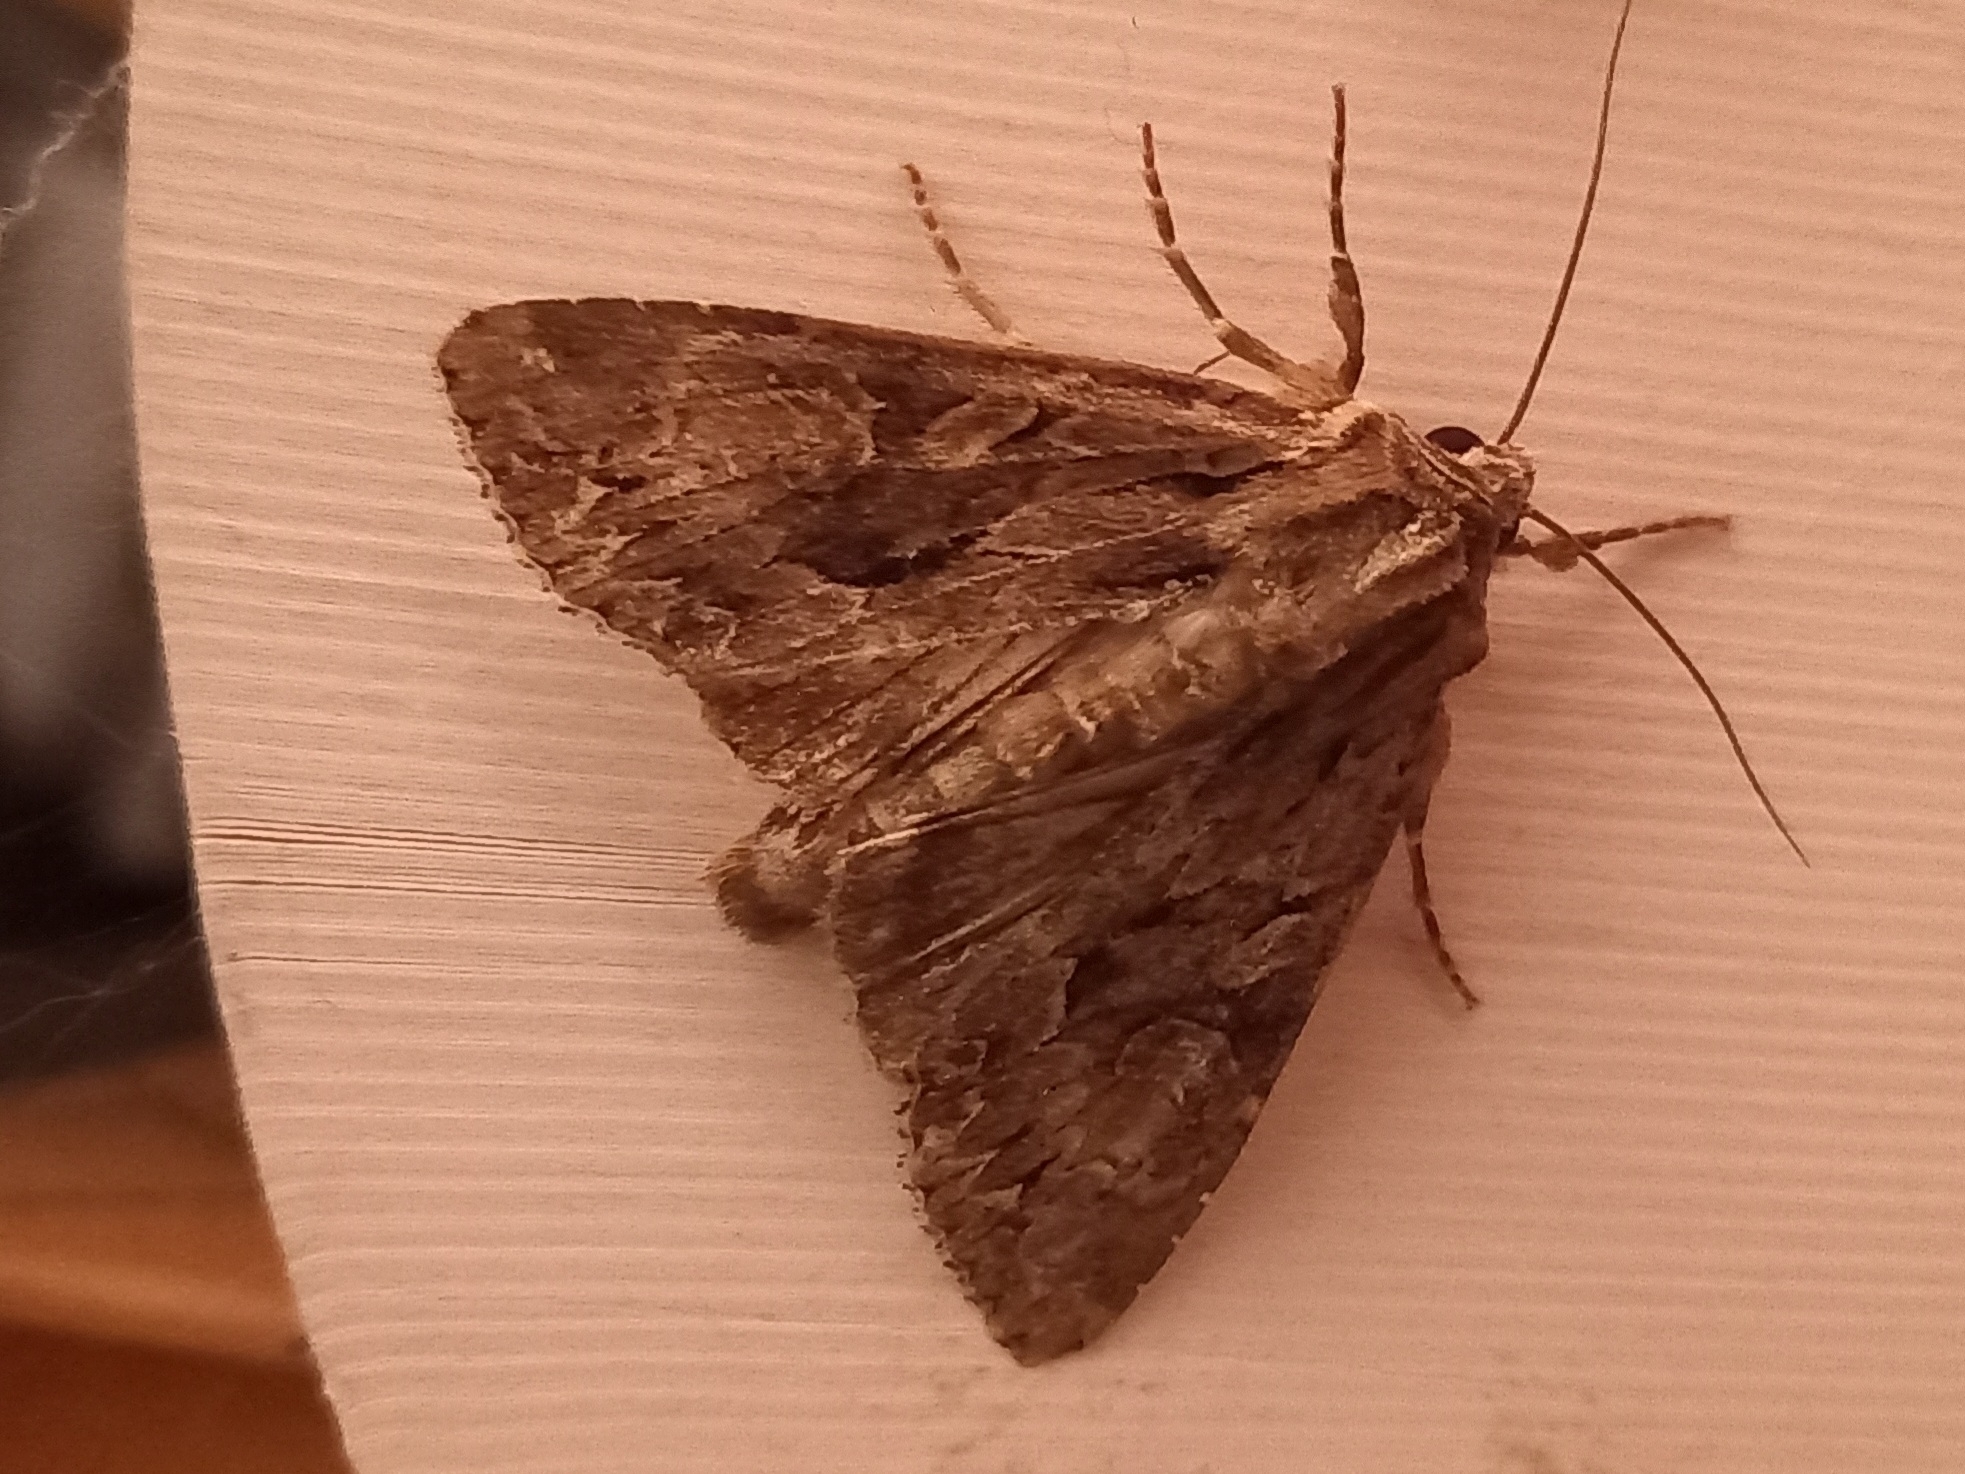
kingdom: Animalia
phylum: Arthropoda
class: Insecta
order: Lepidoptera
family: Noctuidae
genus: Apamea
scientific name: Apamea monoglypha
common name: Dark arches
